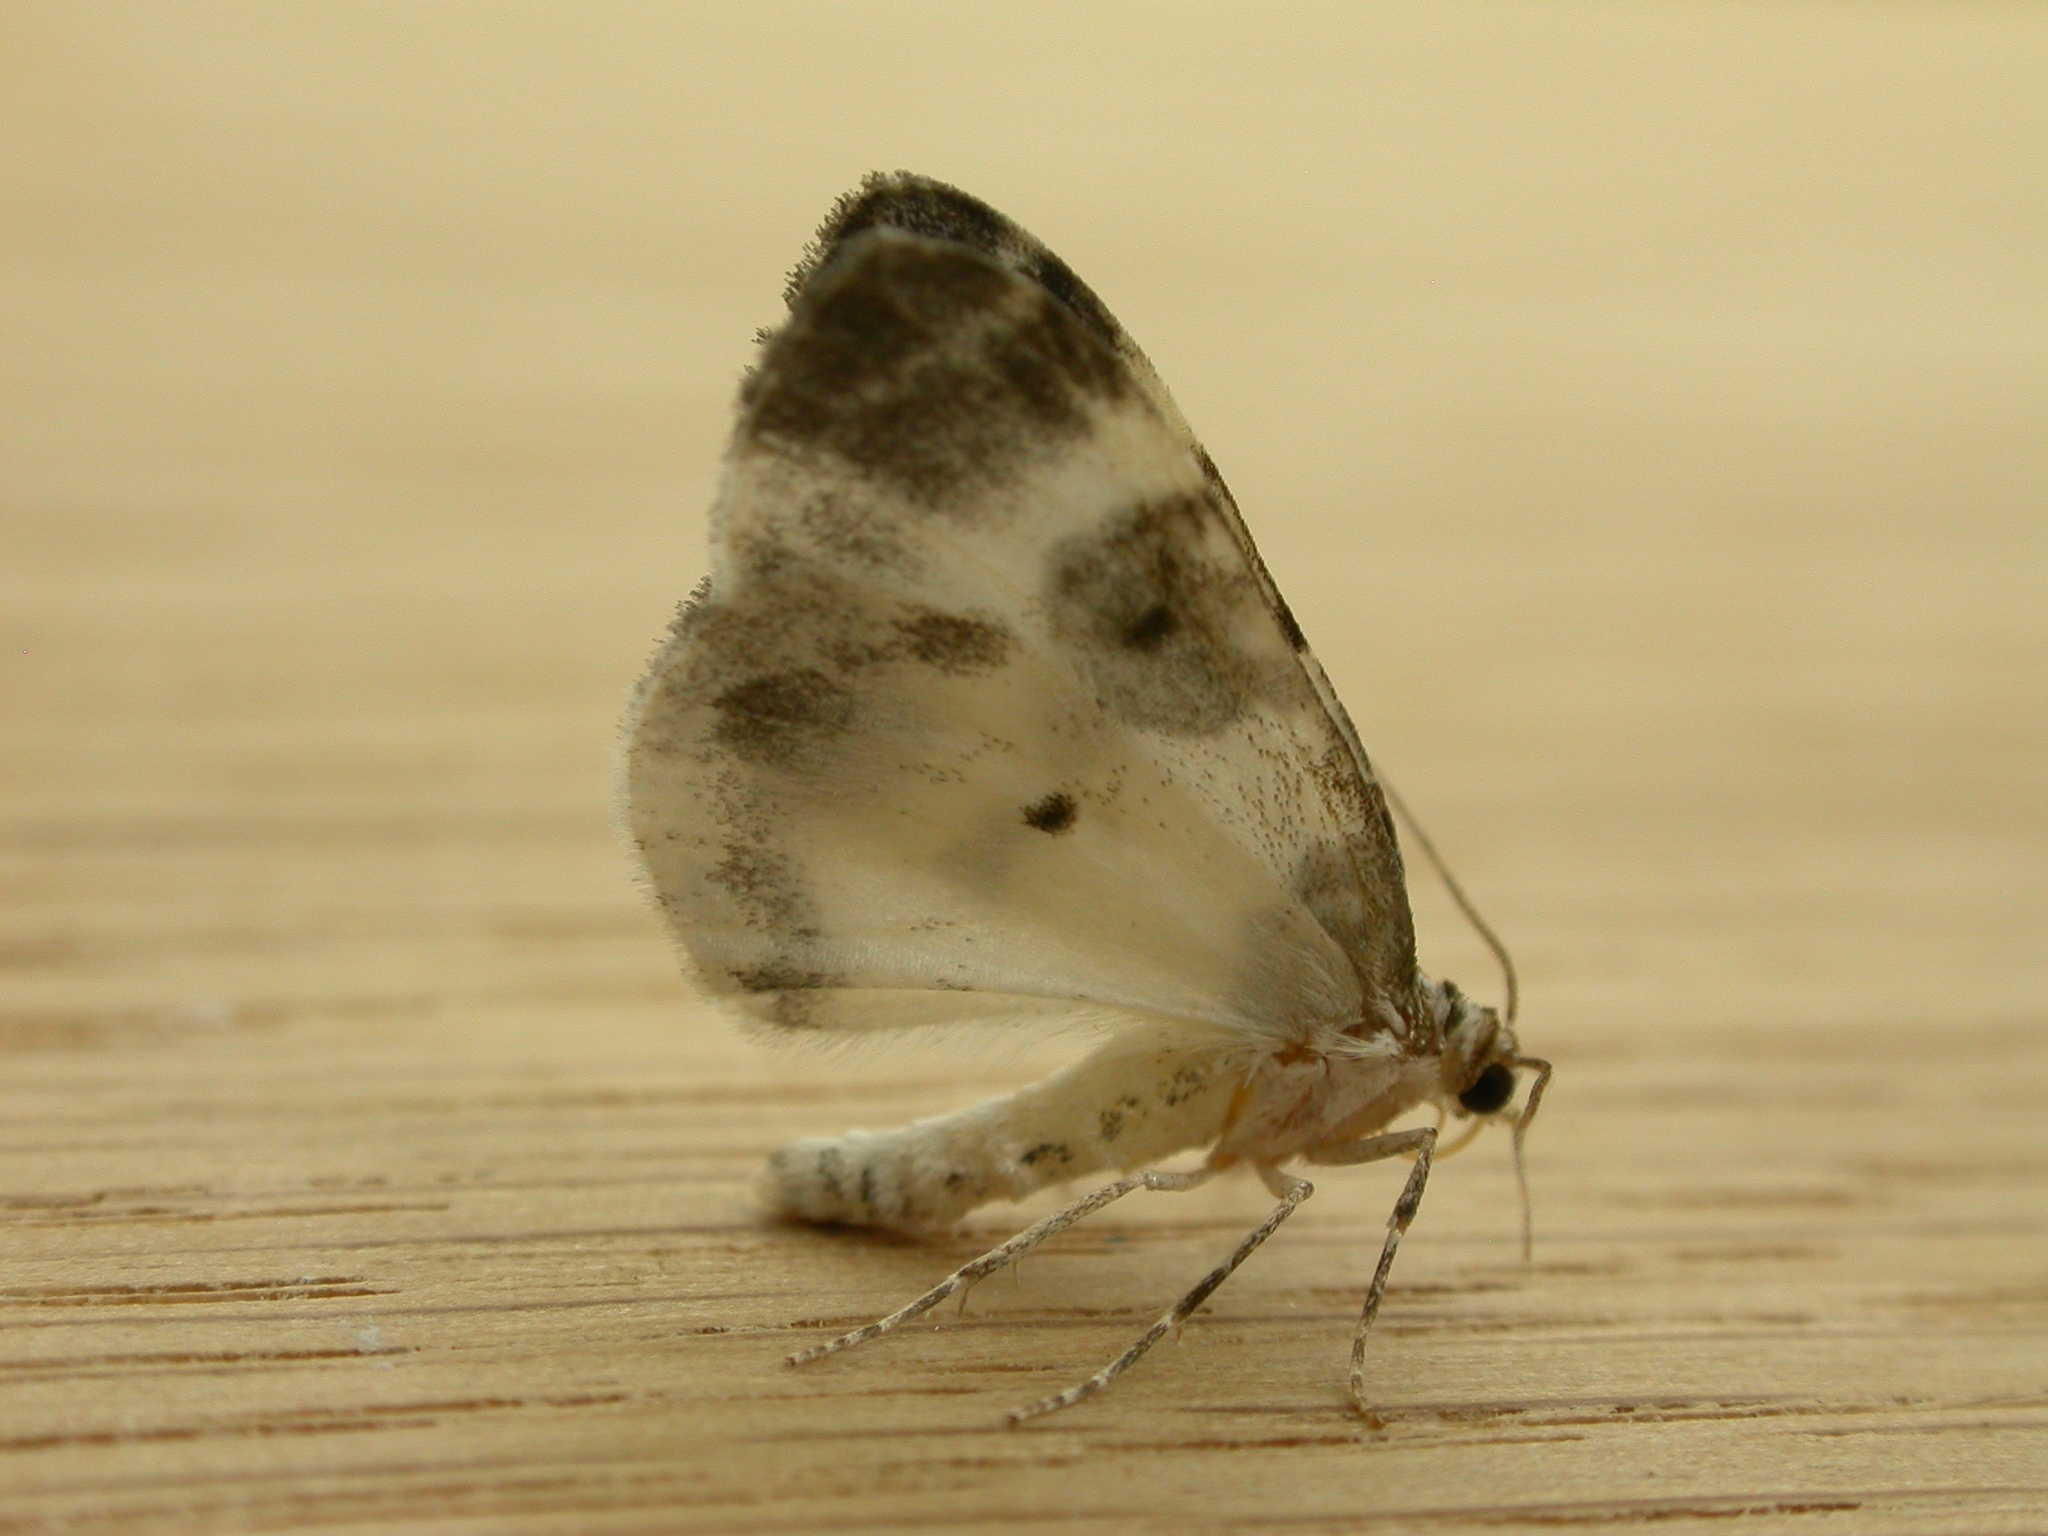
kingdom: Animalia
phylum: Arthropoda
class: Insecta
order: Lepidoptera
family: Geometridae
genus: Plemyria
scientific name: Plemyria rubiginata
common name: Blue-bordered carpet
